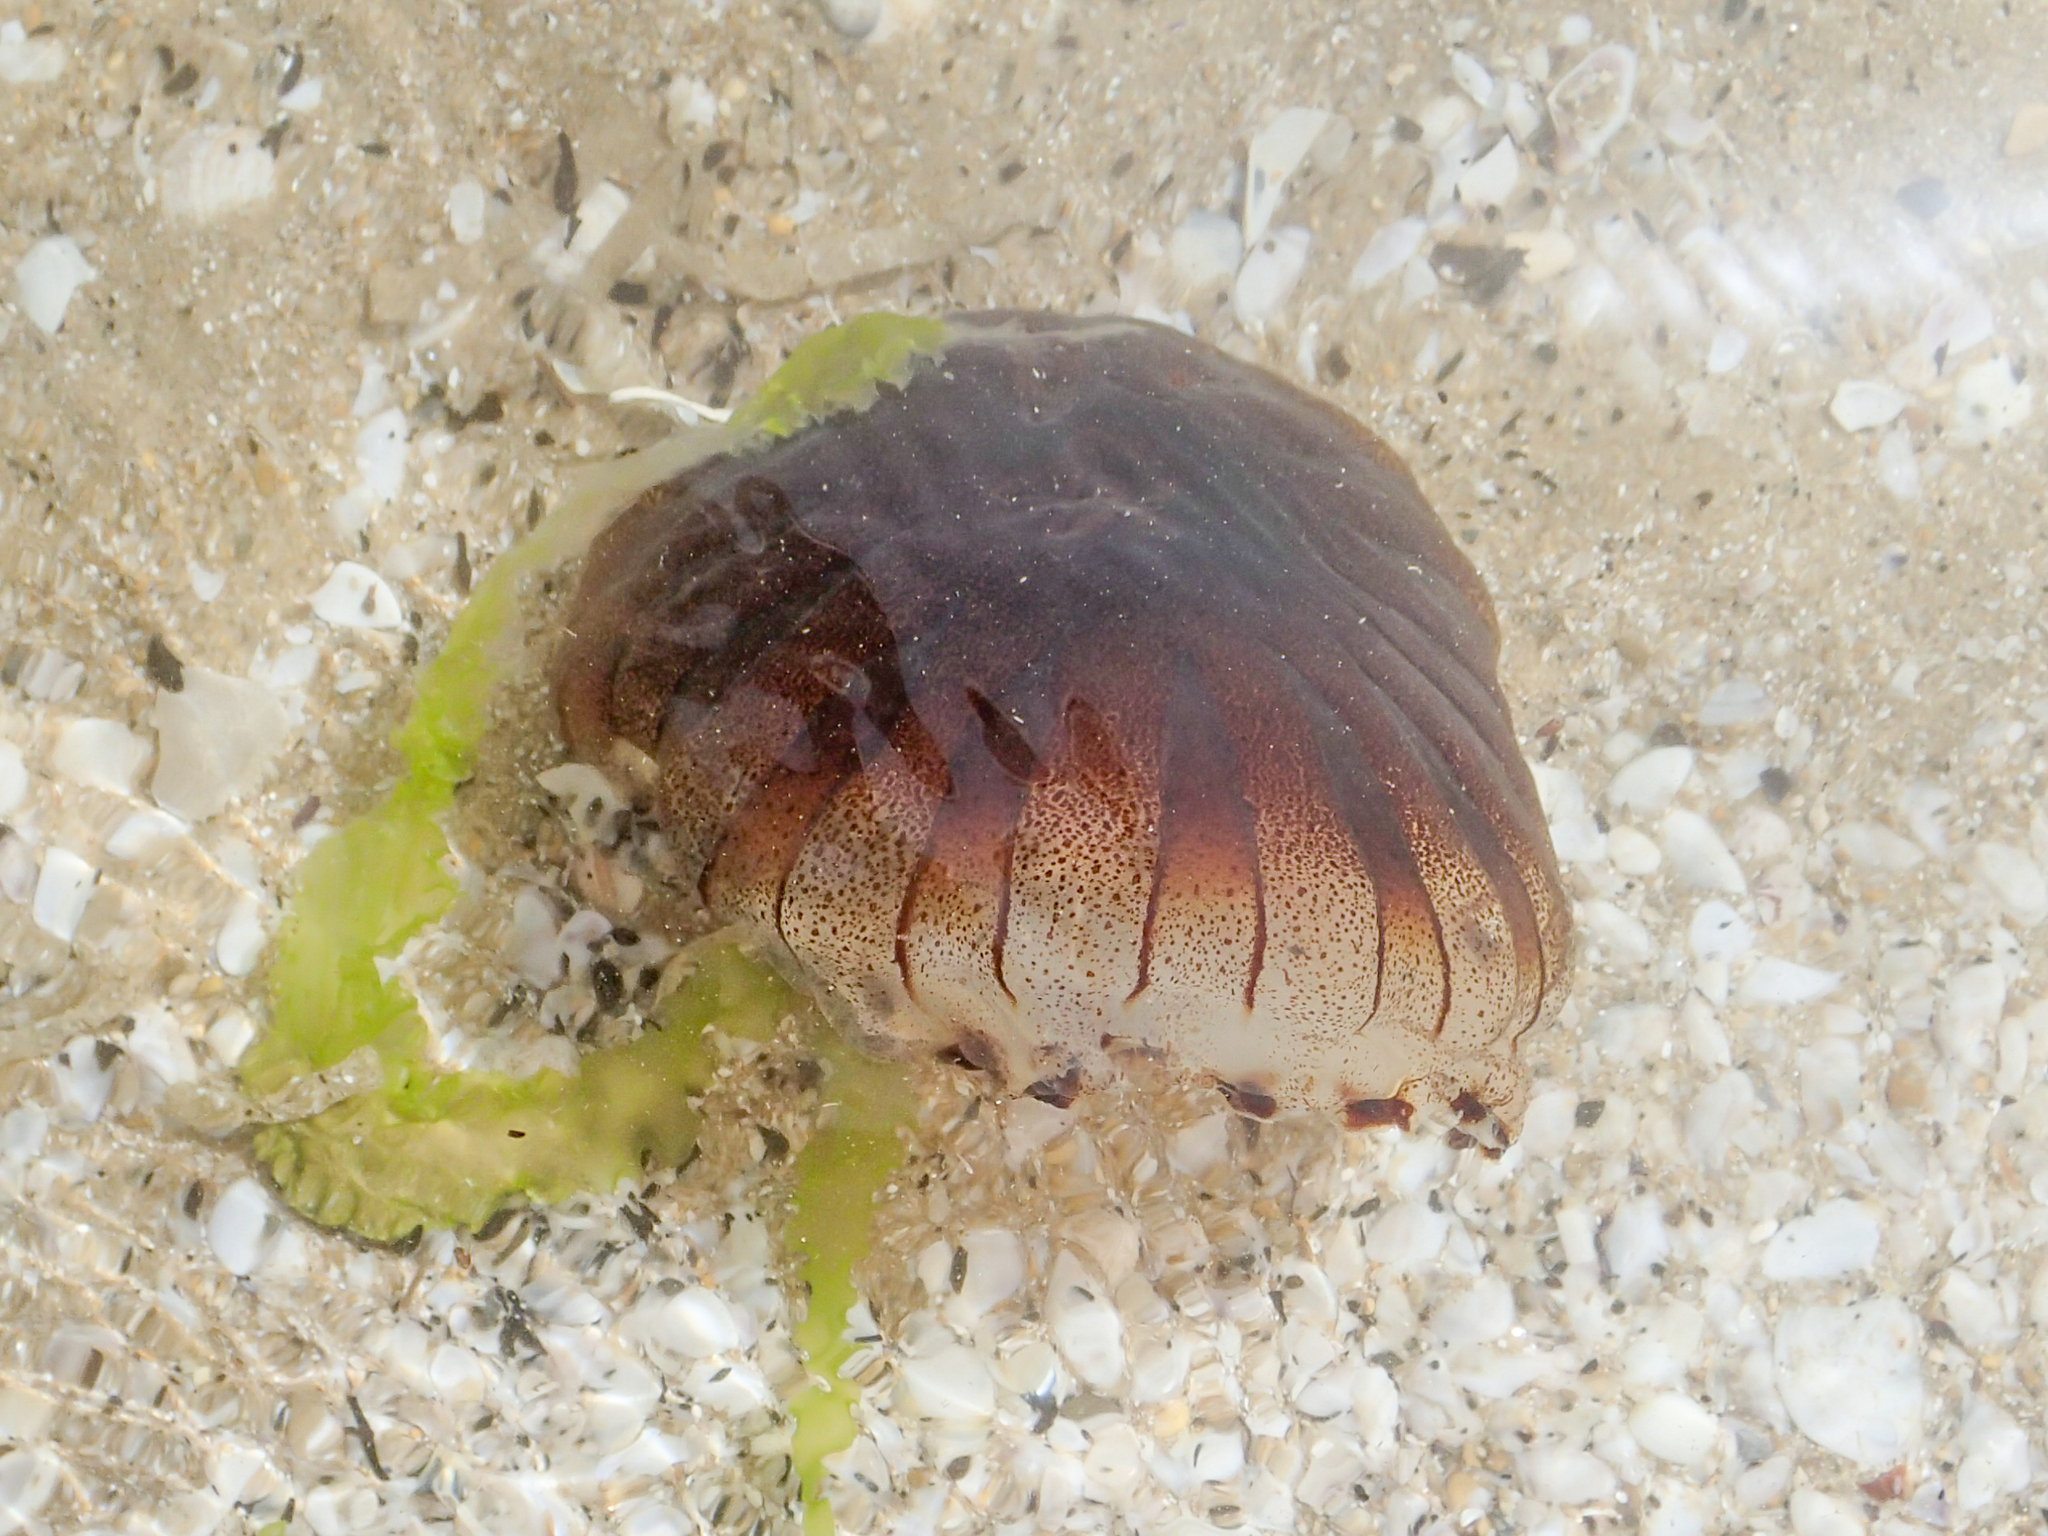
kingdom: Animalia
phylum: Cnidaria
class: Scyphozoa
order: Semaeostomeae
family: Pelagiidae
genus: Chrysaora
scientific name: Chrysaora hysoscella
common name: Compass jellyfish
